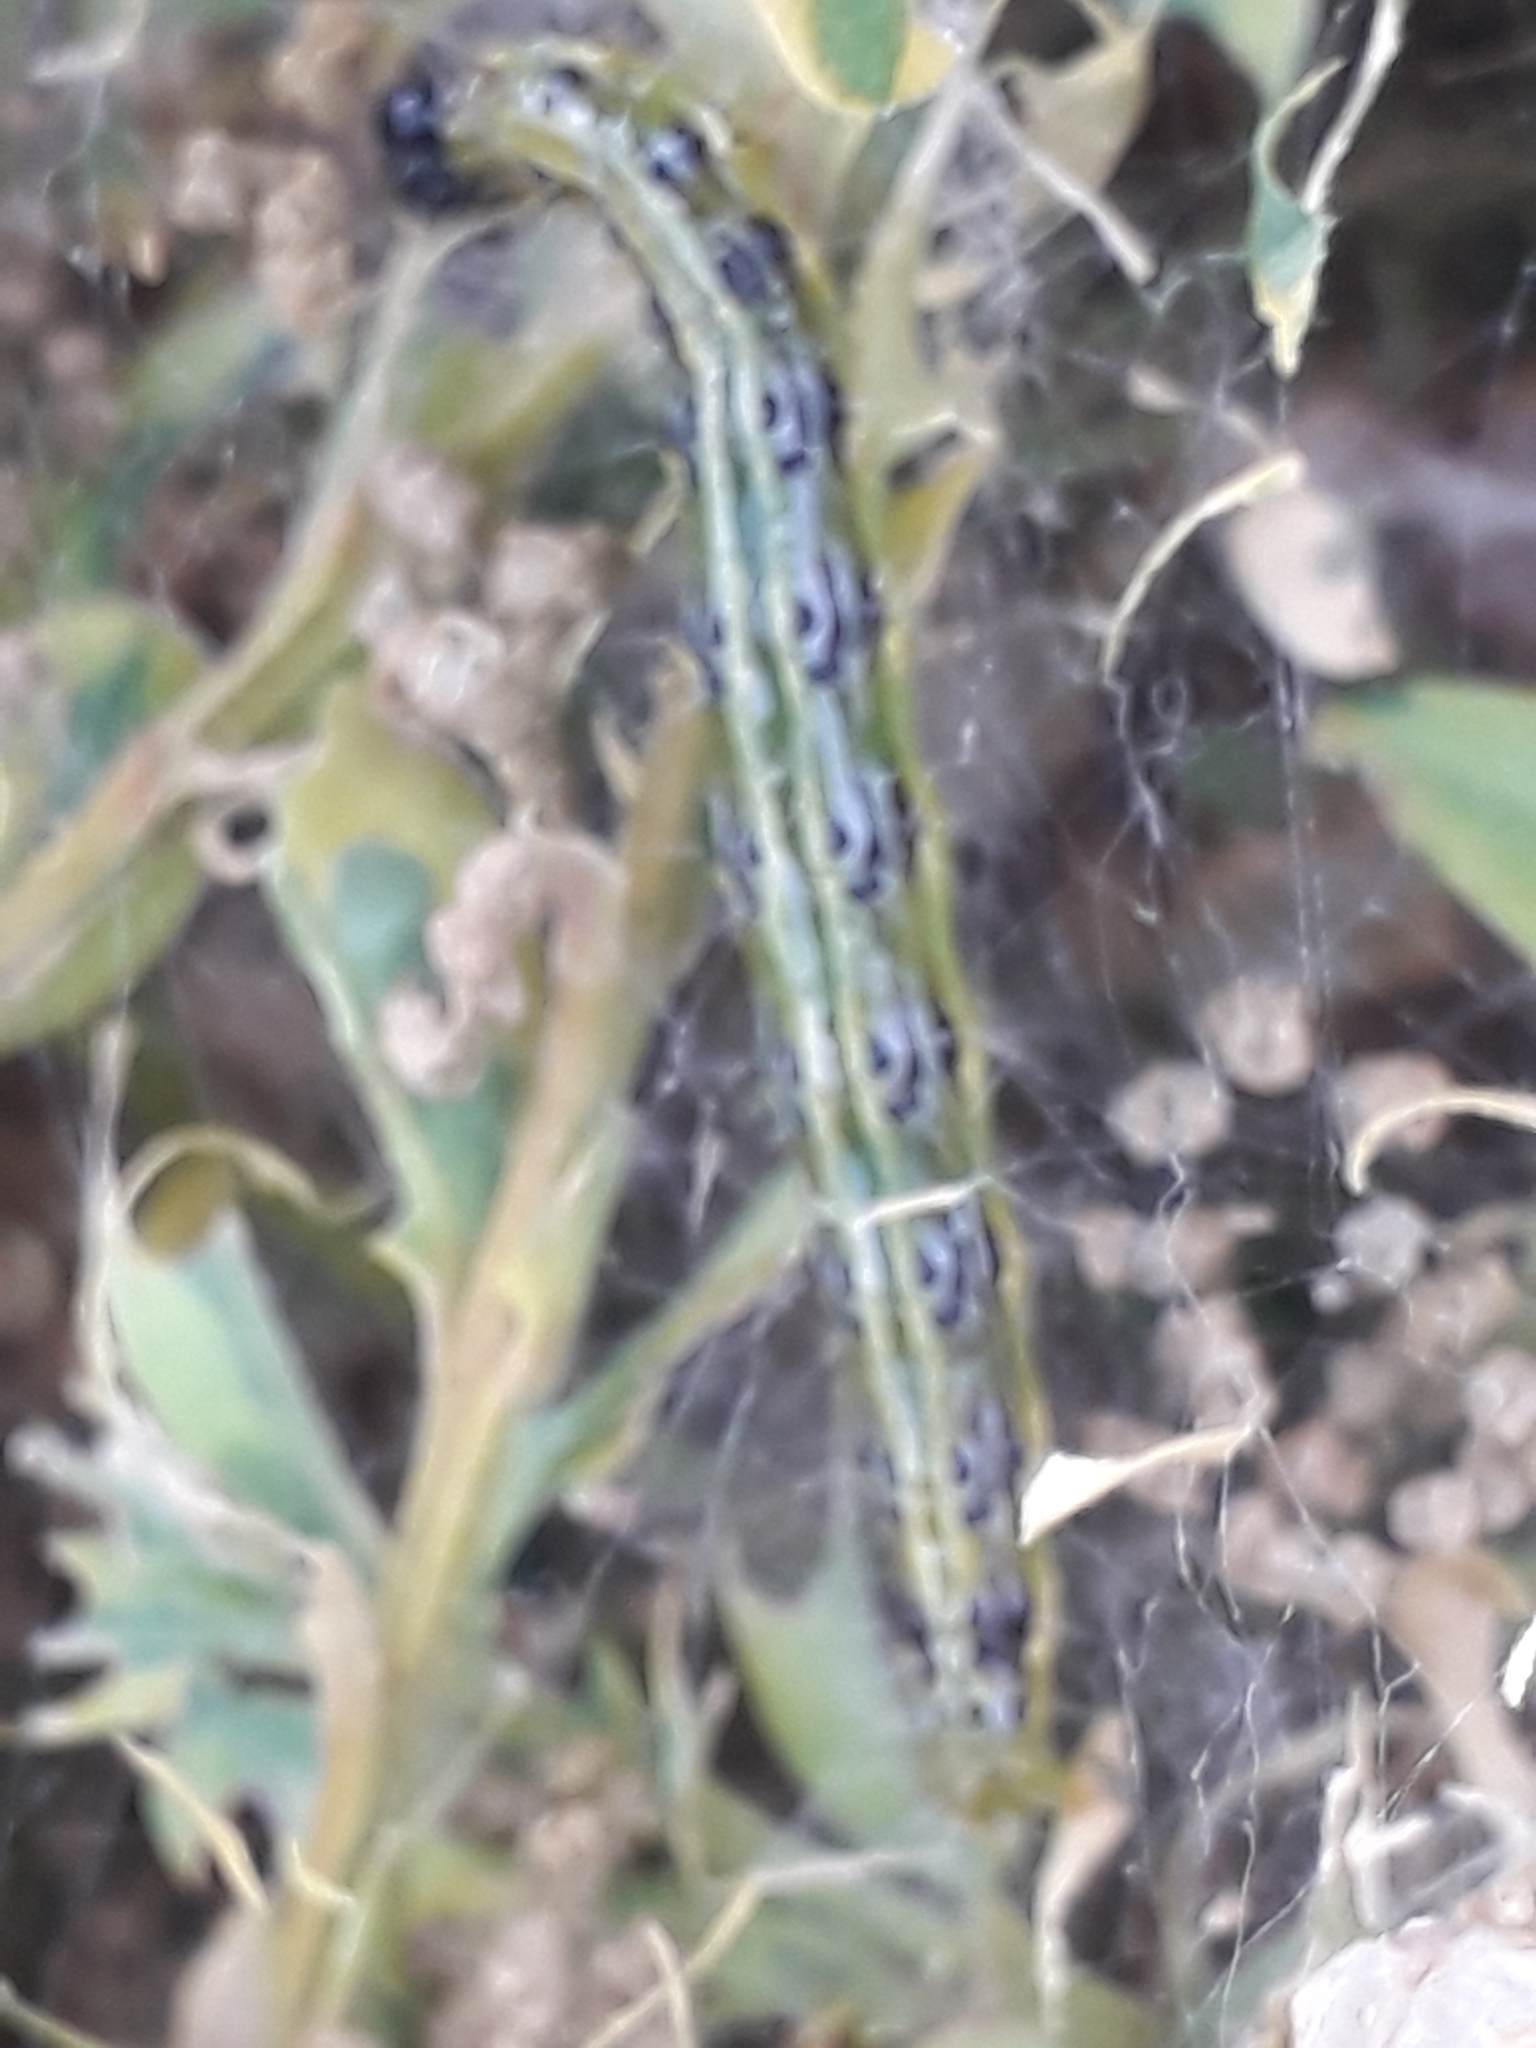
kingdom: Animalia
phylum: Arthropoda
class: Insecta
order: Lepidoptera
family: Crambidae
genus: Cydalima
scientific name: Cydalima perspectalis
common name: Box tree moth
